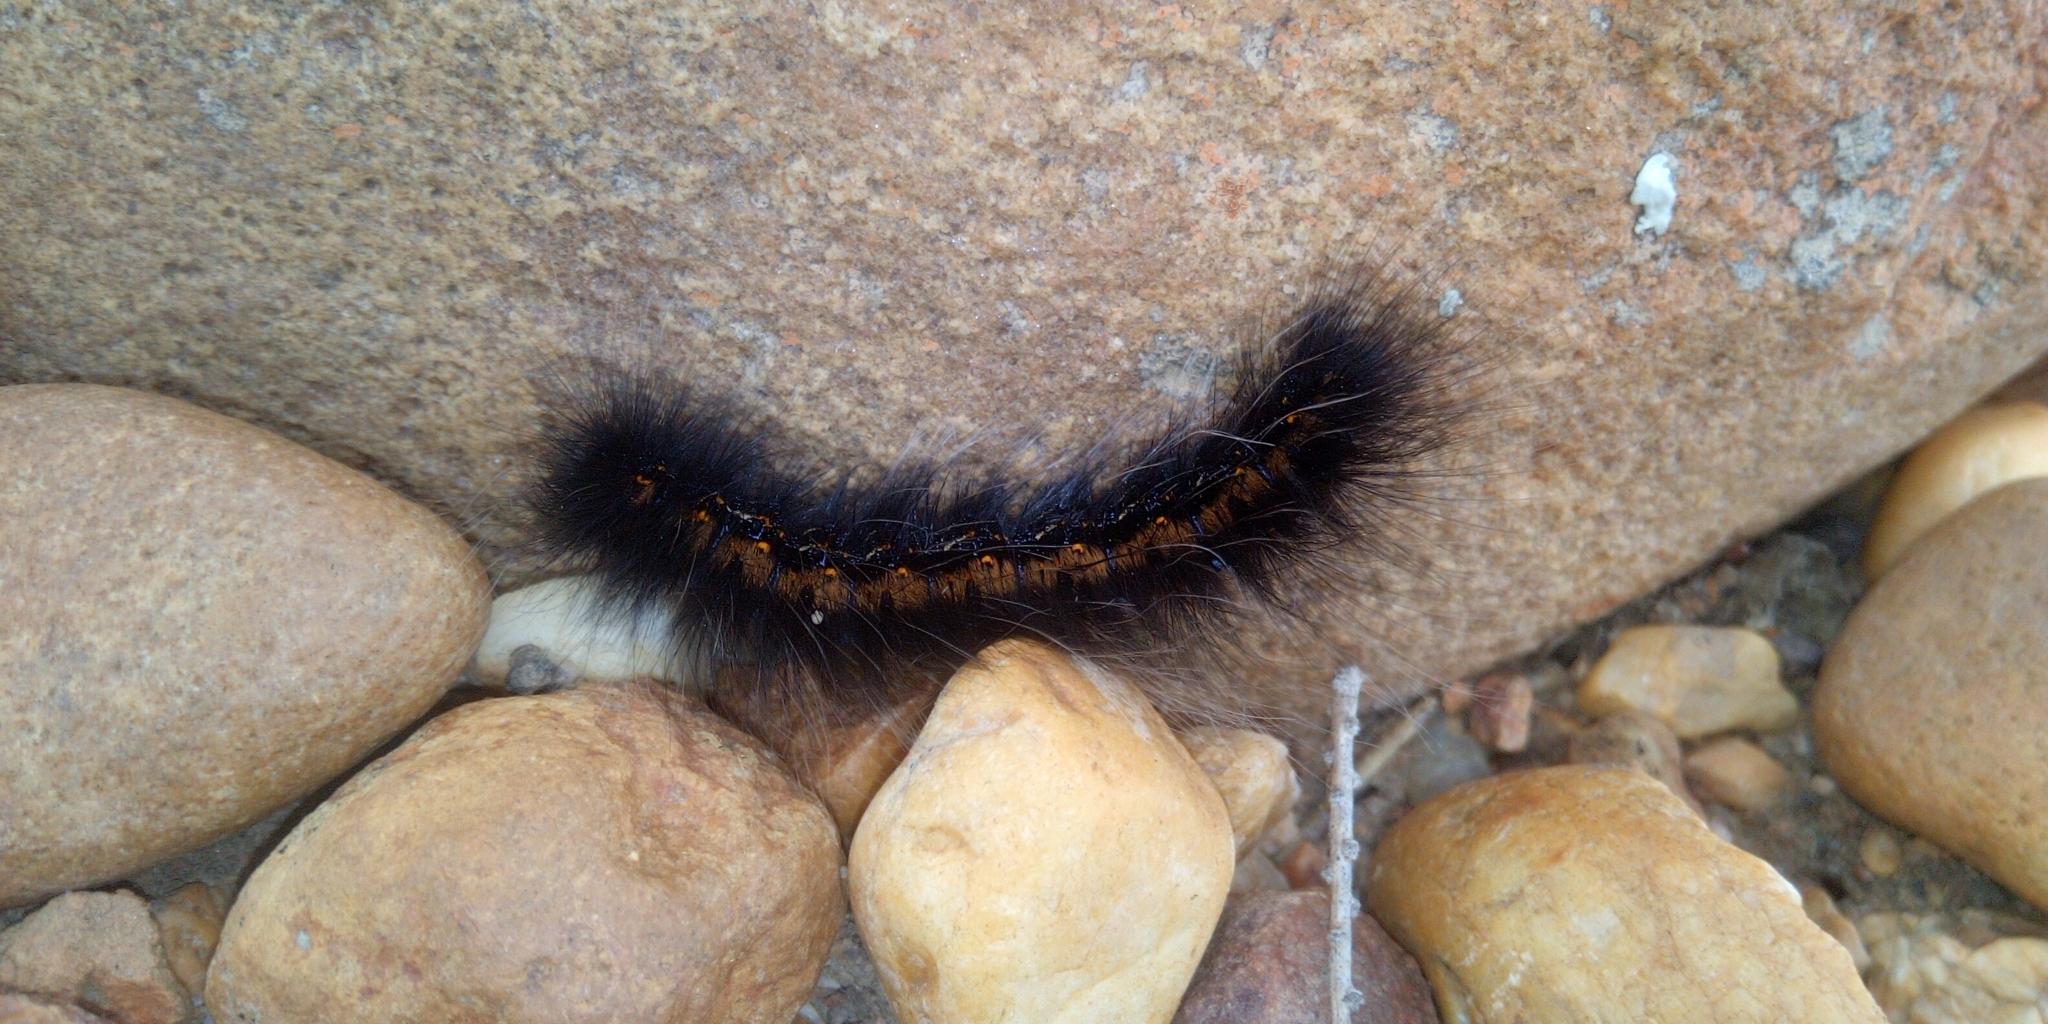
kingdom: Animalia
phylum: Arthropoda
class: Insecta
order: Lepidoptera
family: Lasiocampidae
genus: Mesocelis
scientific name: Mesocelis monticola
